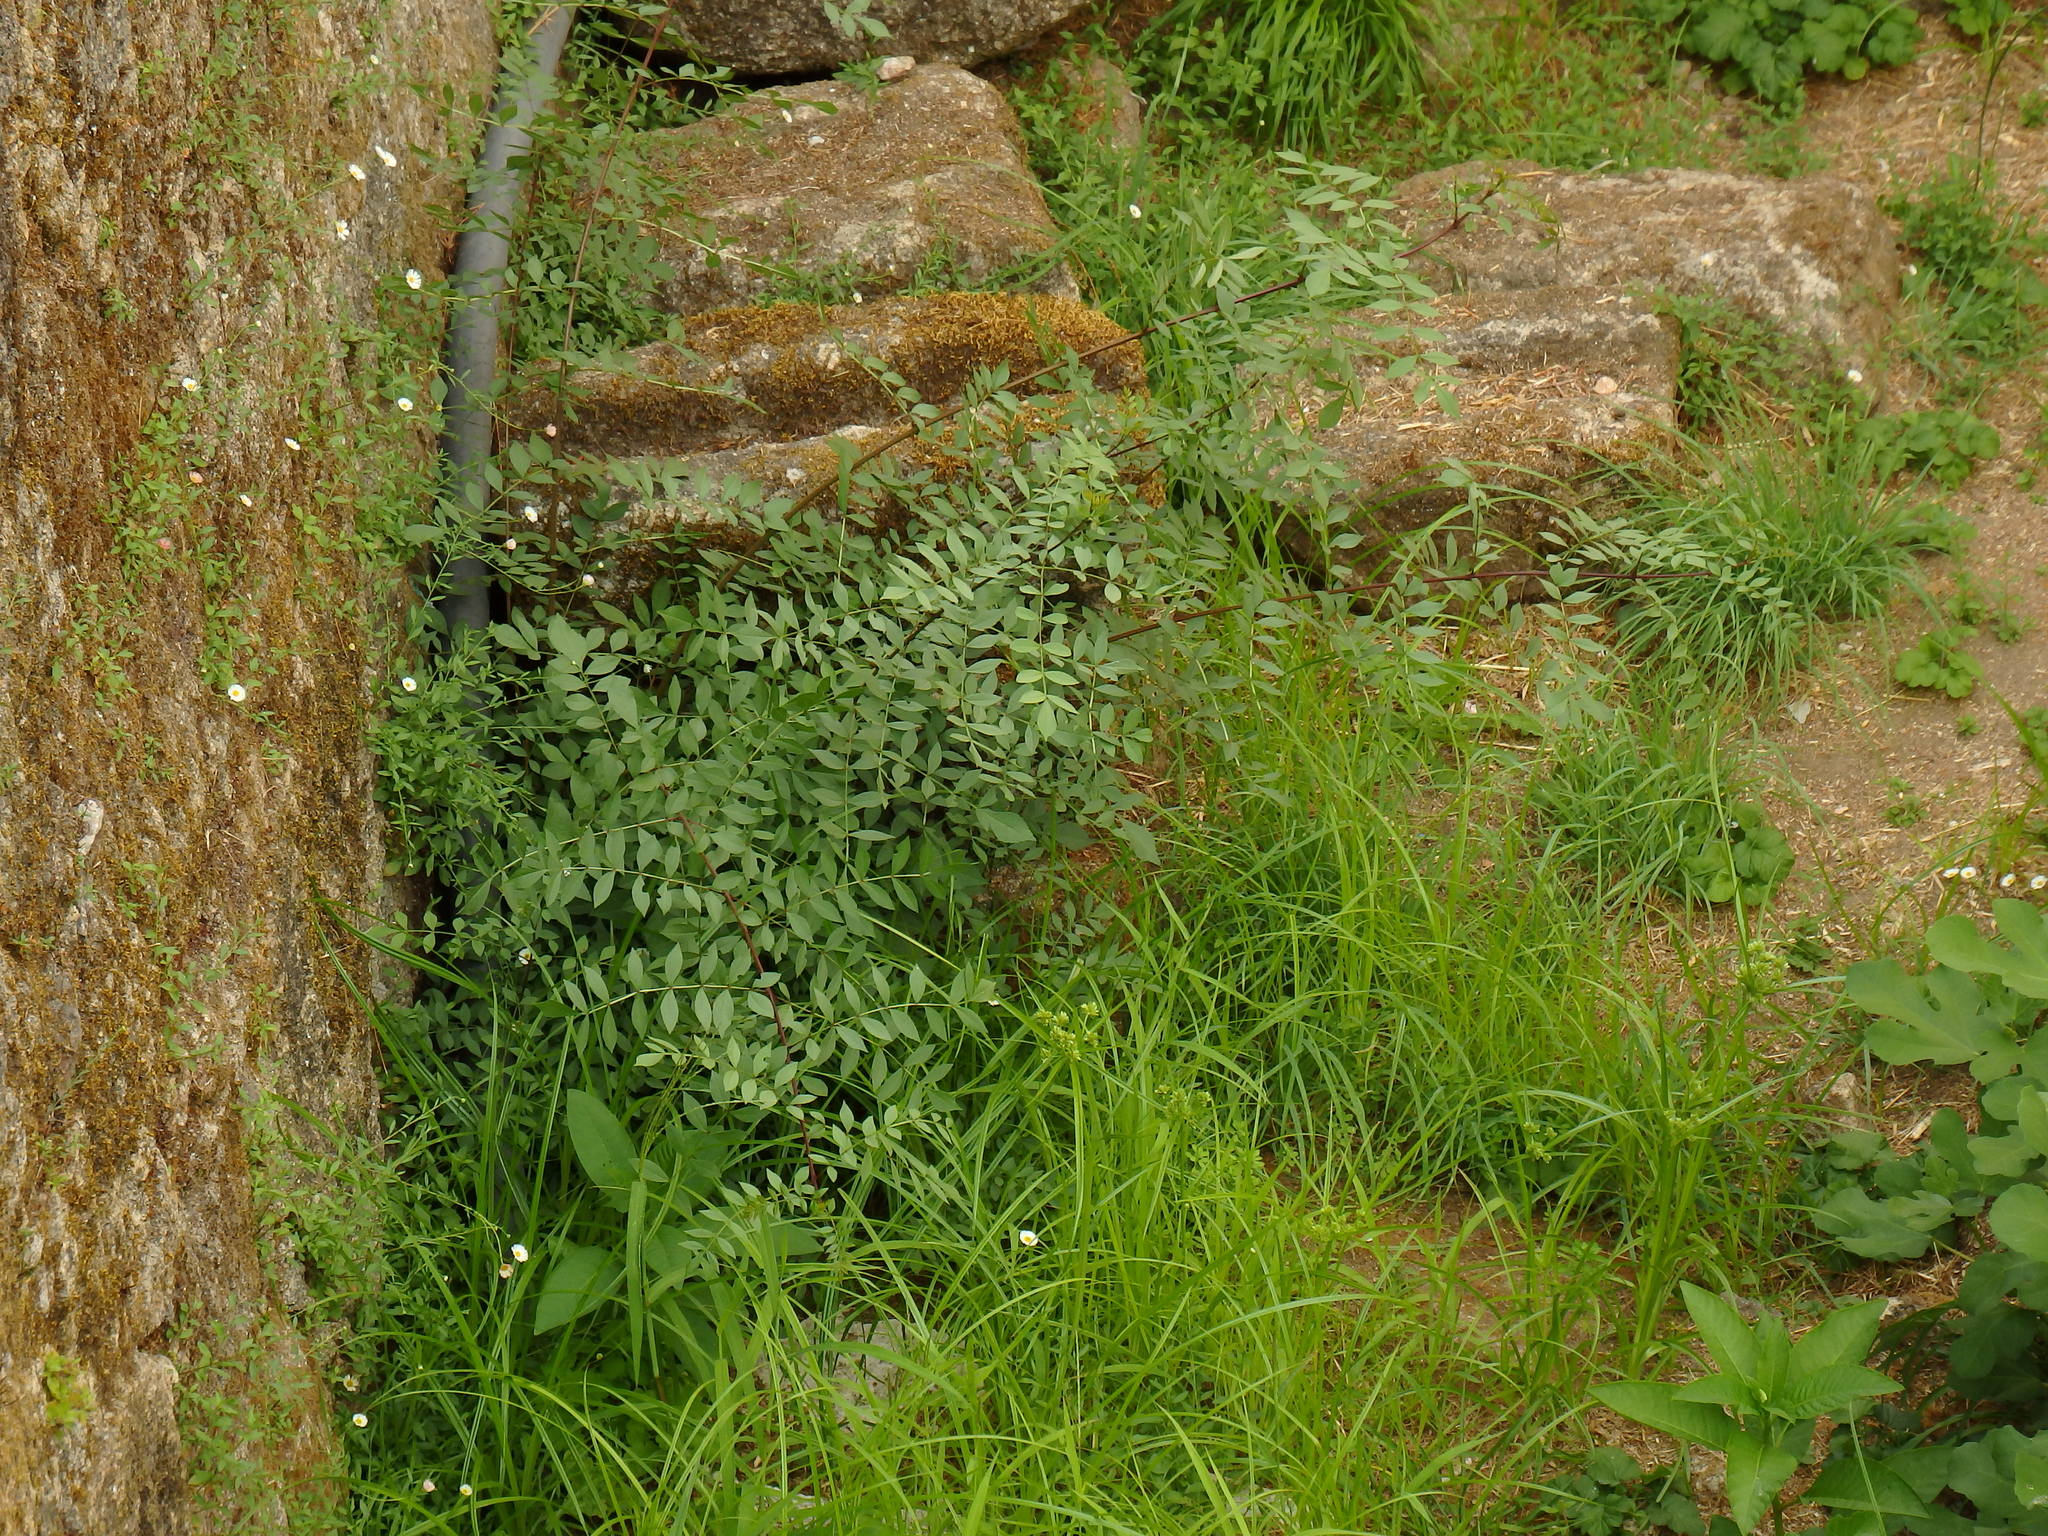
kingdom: Plantae
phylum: Tracheophyta
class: Magnoliopsida
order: Lamiales
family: Oleaceae
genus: Fraxinus
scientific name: Fraxinus angustifolia
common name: Narrow-leafed ash
